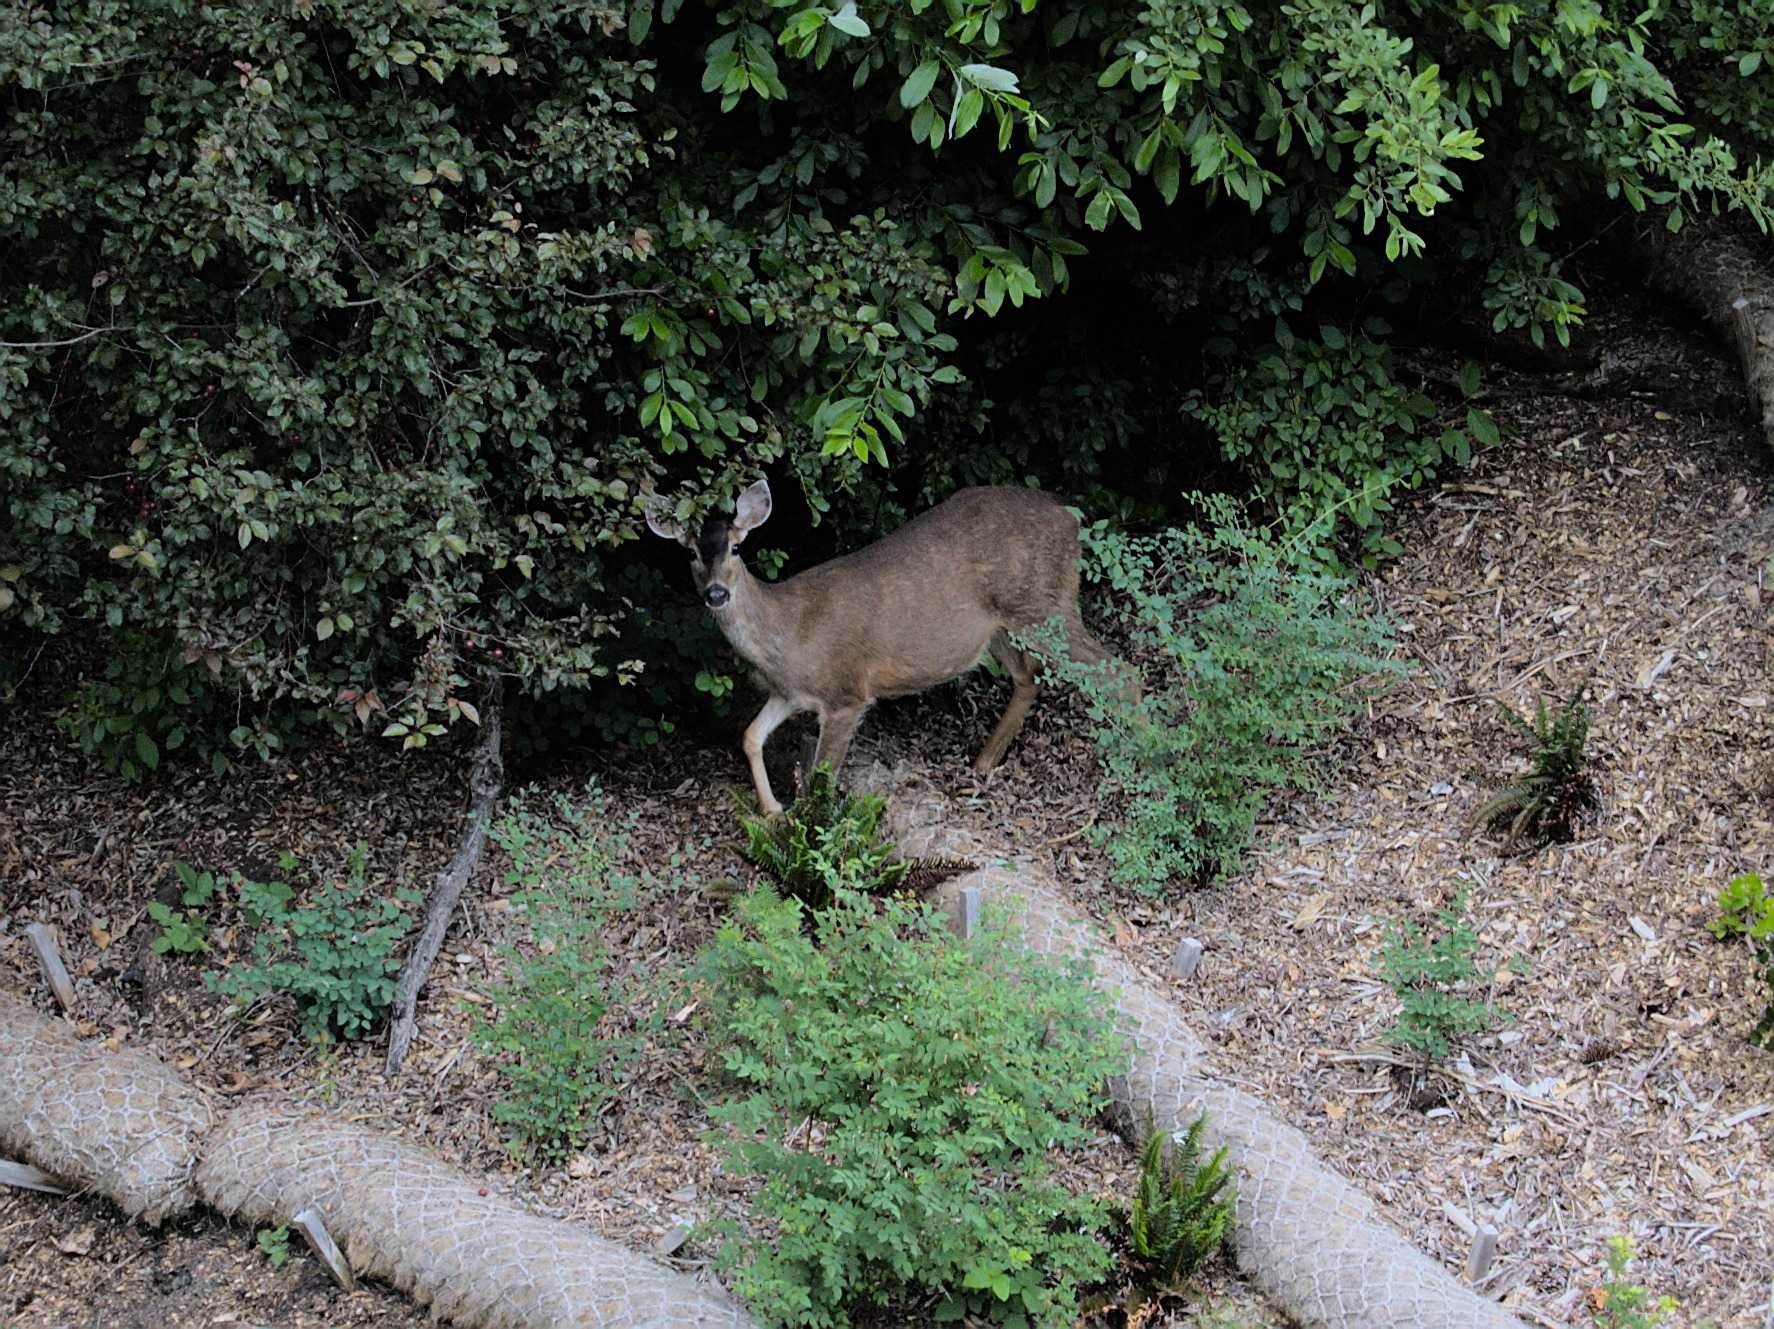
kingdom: Animalia
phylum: Chordata
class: Mammalia
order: Artiodactyla
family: Cervidae
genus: Odocoileus
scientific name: Odocoileus hemionus
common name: Mule deer
